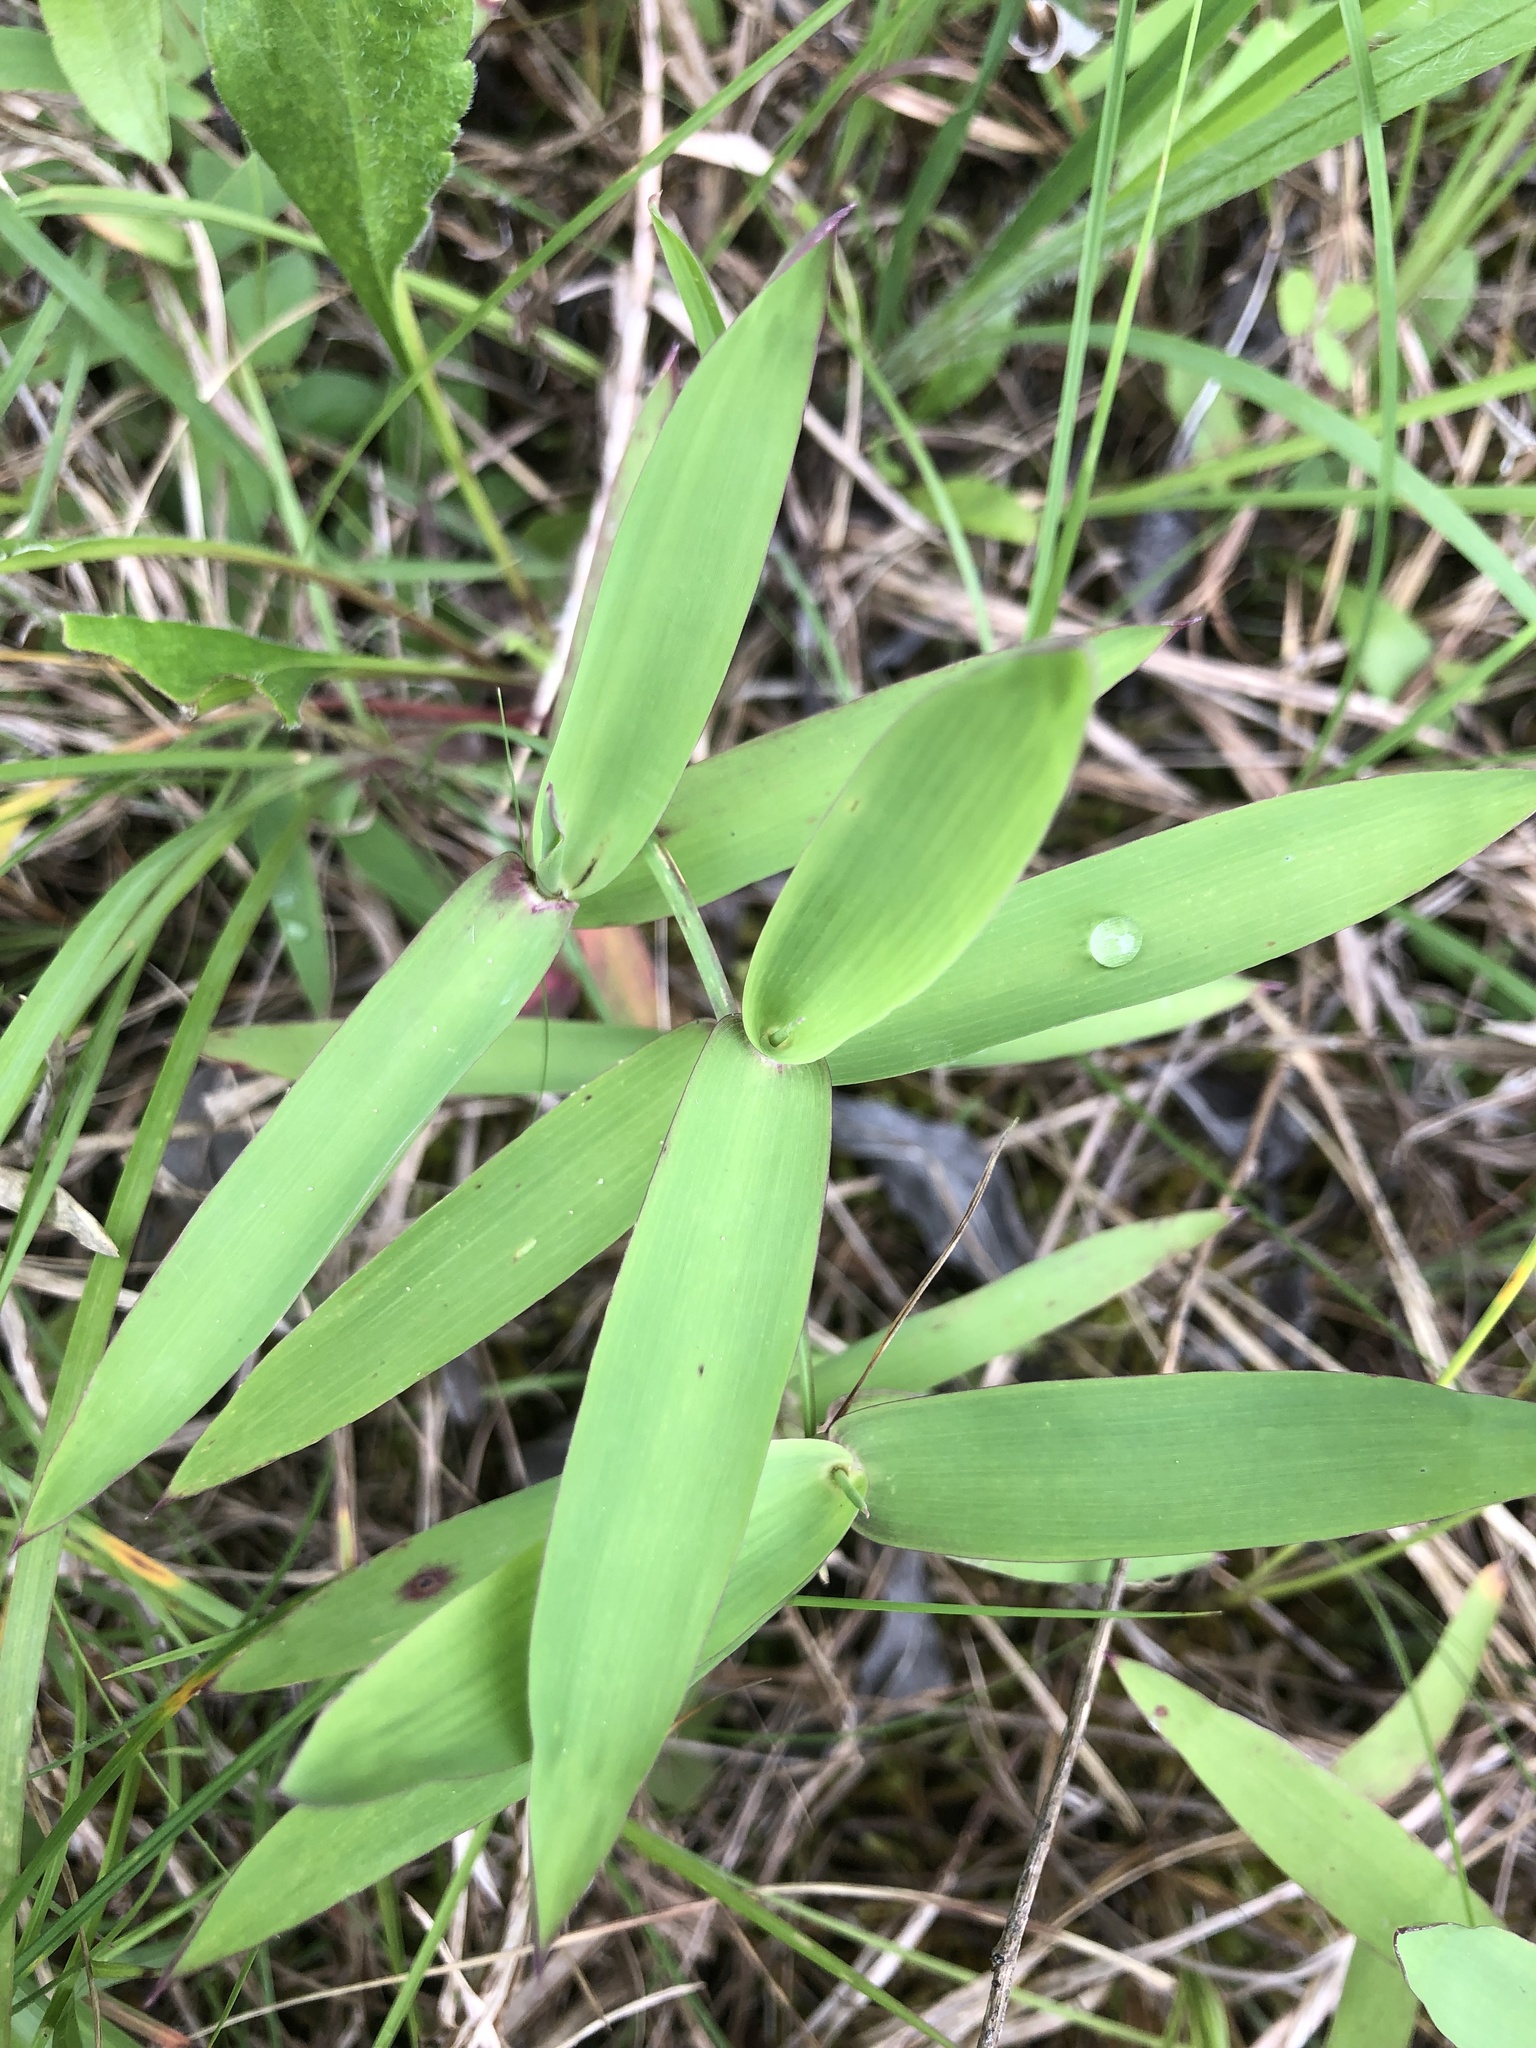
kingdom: Plantae
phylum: Tracheophyta
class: Liliopsida
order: Poales
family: Poaceae
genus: Gymnopogon
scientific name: Gymnopogon ambiguus
